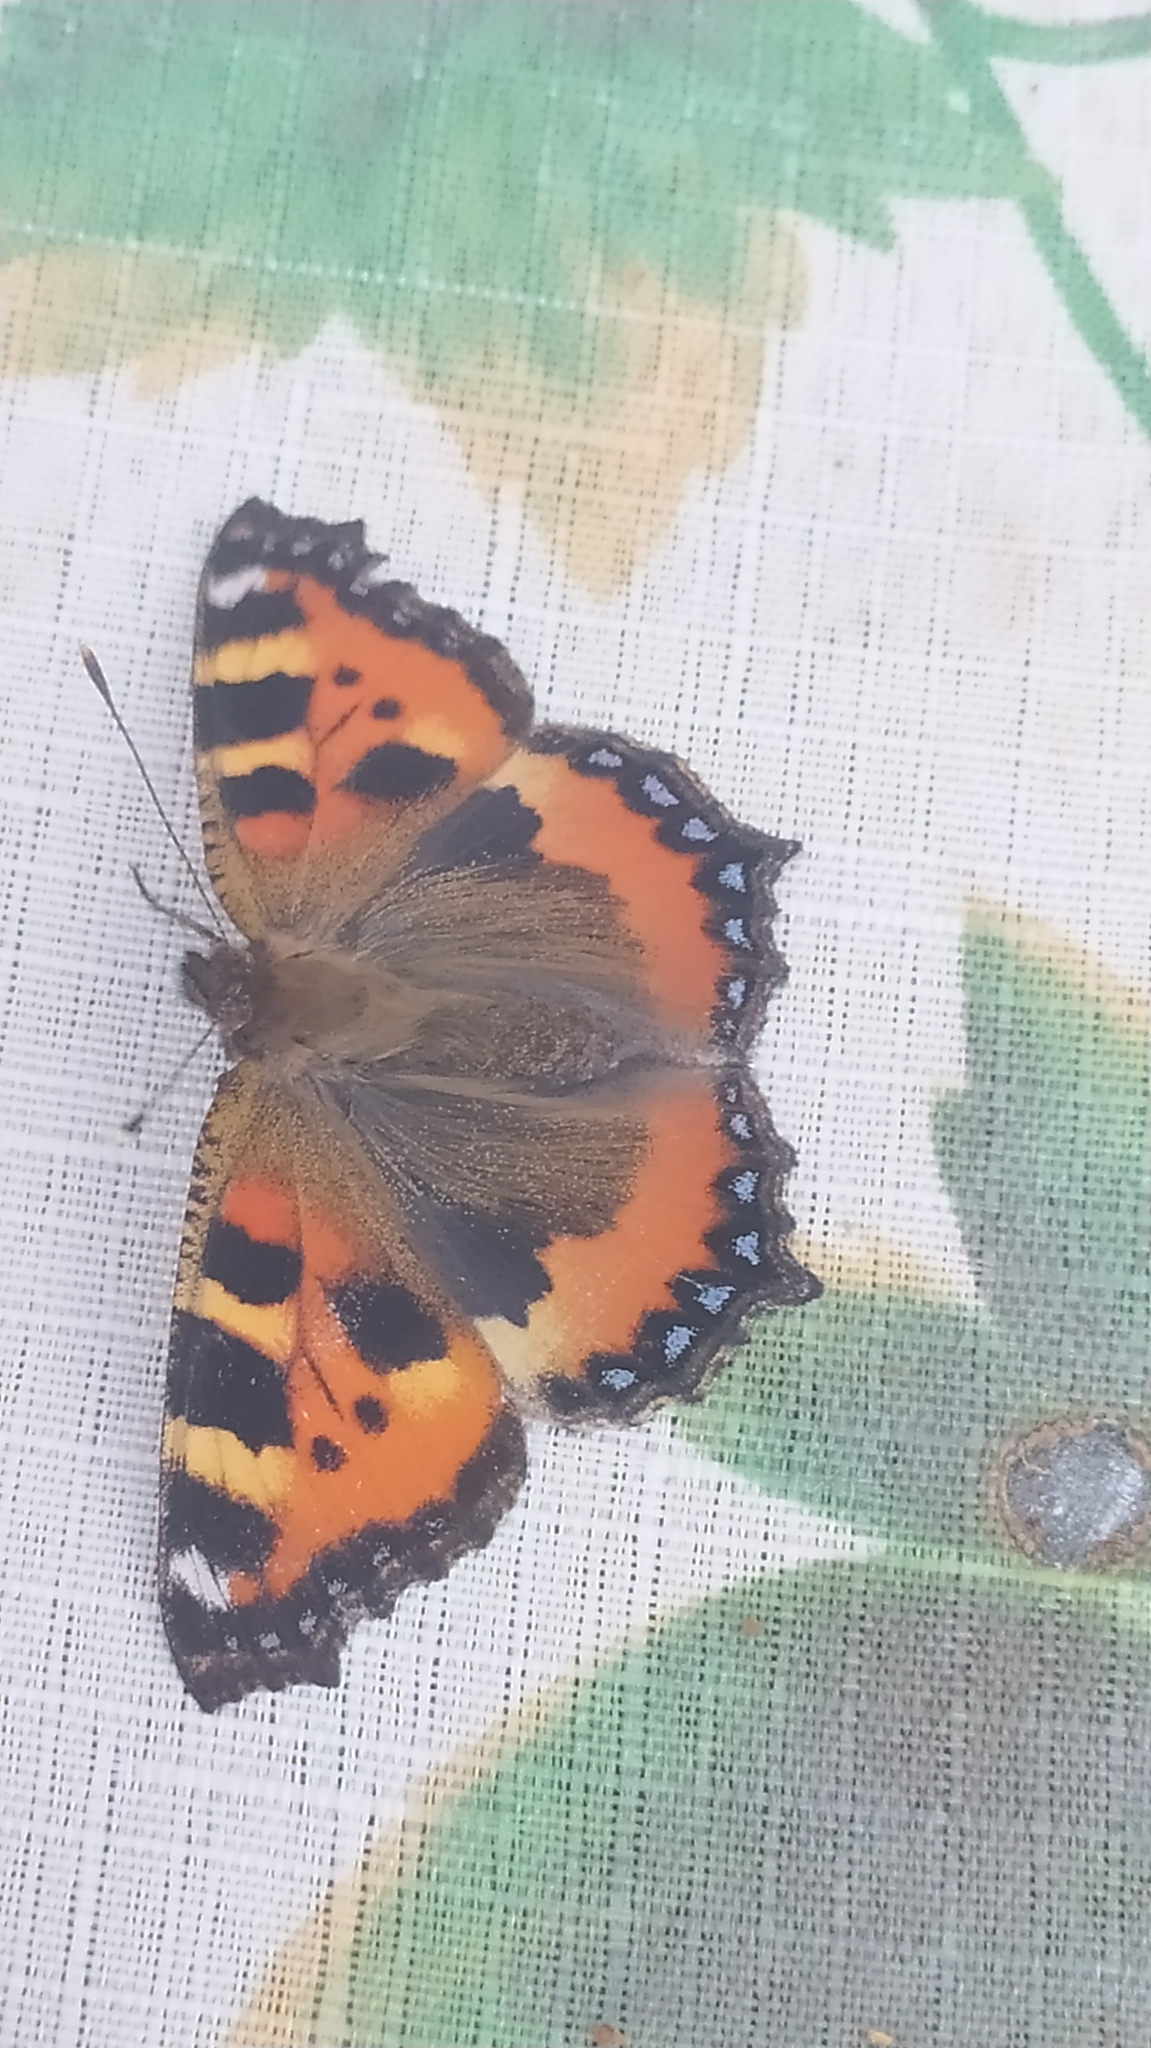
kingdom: Animalia
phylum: Arthropoda
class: Insecta
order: Lepidoptera
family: Nymphalidae
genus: Aglais
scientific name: Aglais urticae
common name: Small tortoiseshell
